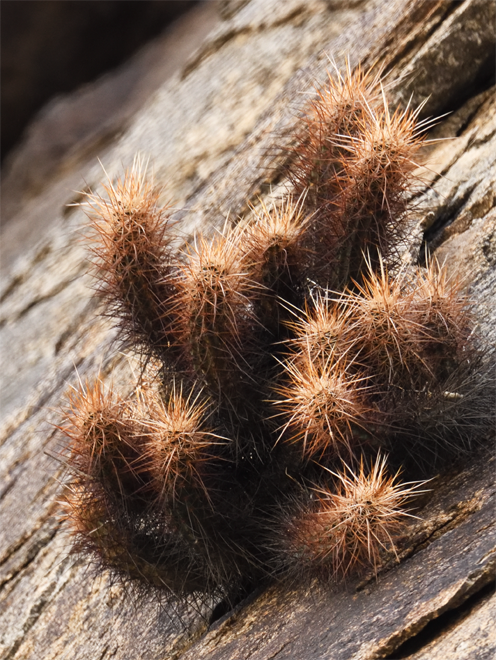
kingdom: Plantae
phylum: Tracheophyta
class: Magnoliopsida
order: Caryophyllales
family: Cactaceae
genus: Echinocereus
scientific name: Echinocereus engelmannii
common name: Engelmann's hedgehog cactus
